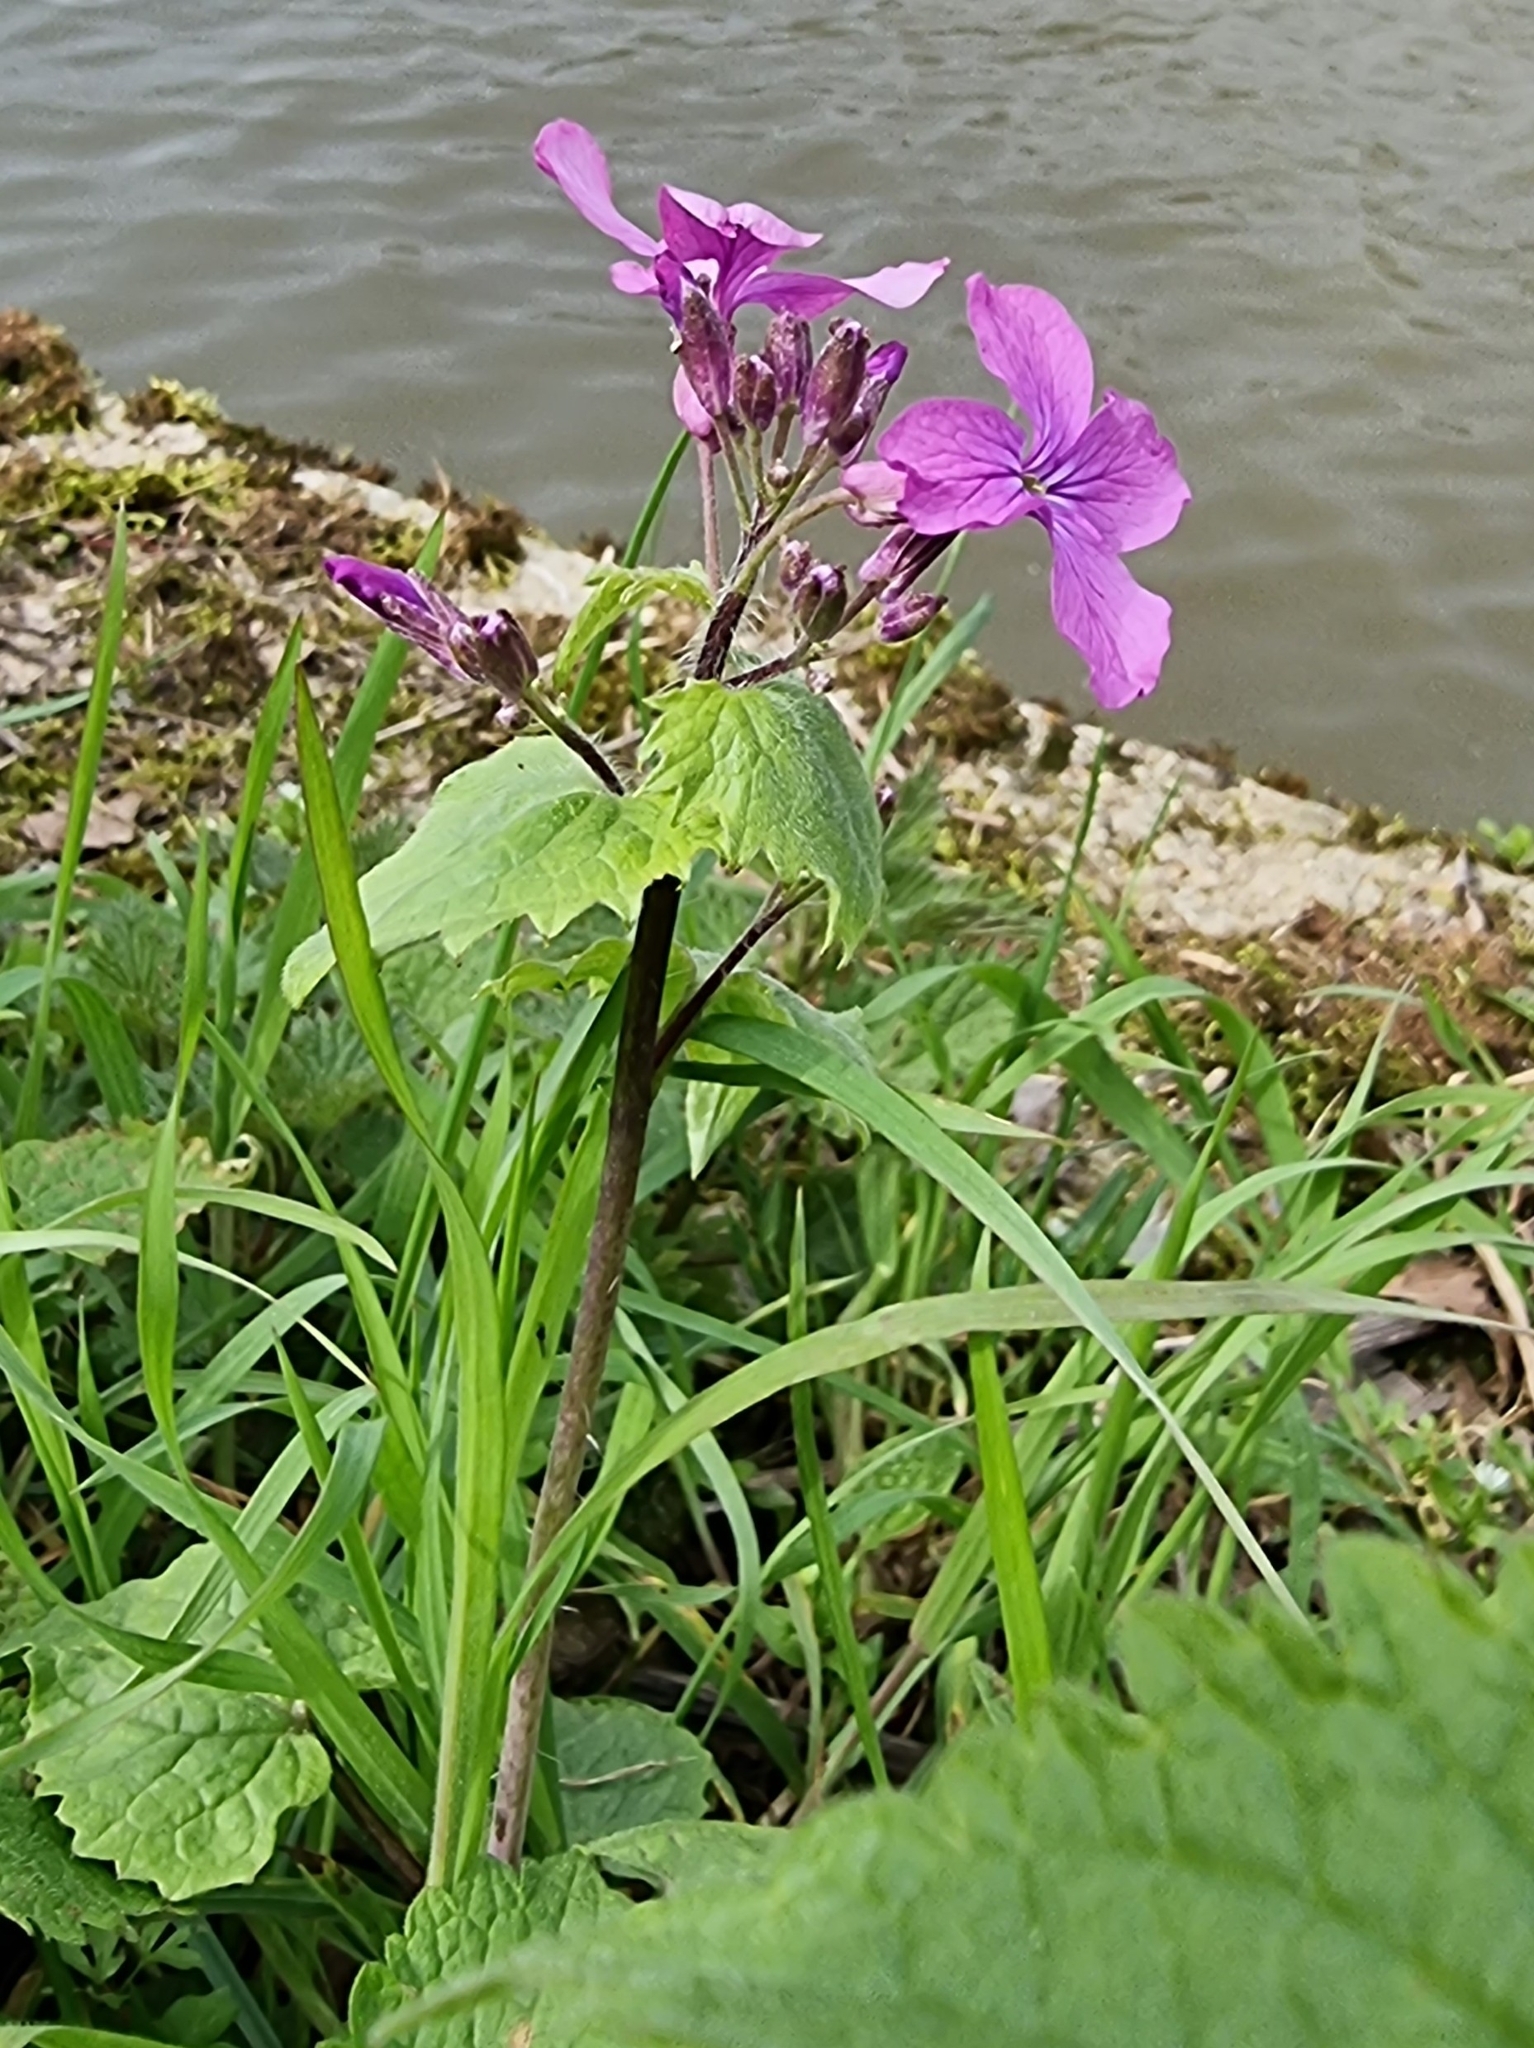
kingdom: Plantae
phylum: Tracheophyta
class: Magnoliopsida
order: Brassicales
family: Brassicaceae
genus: Lunaria
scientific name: Lunaria annua
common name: Honesty
